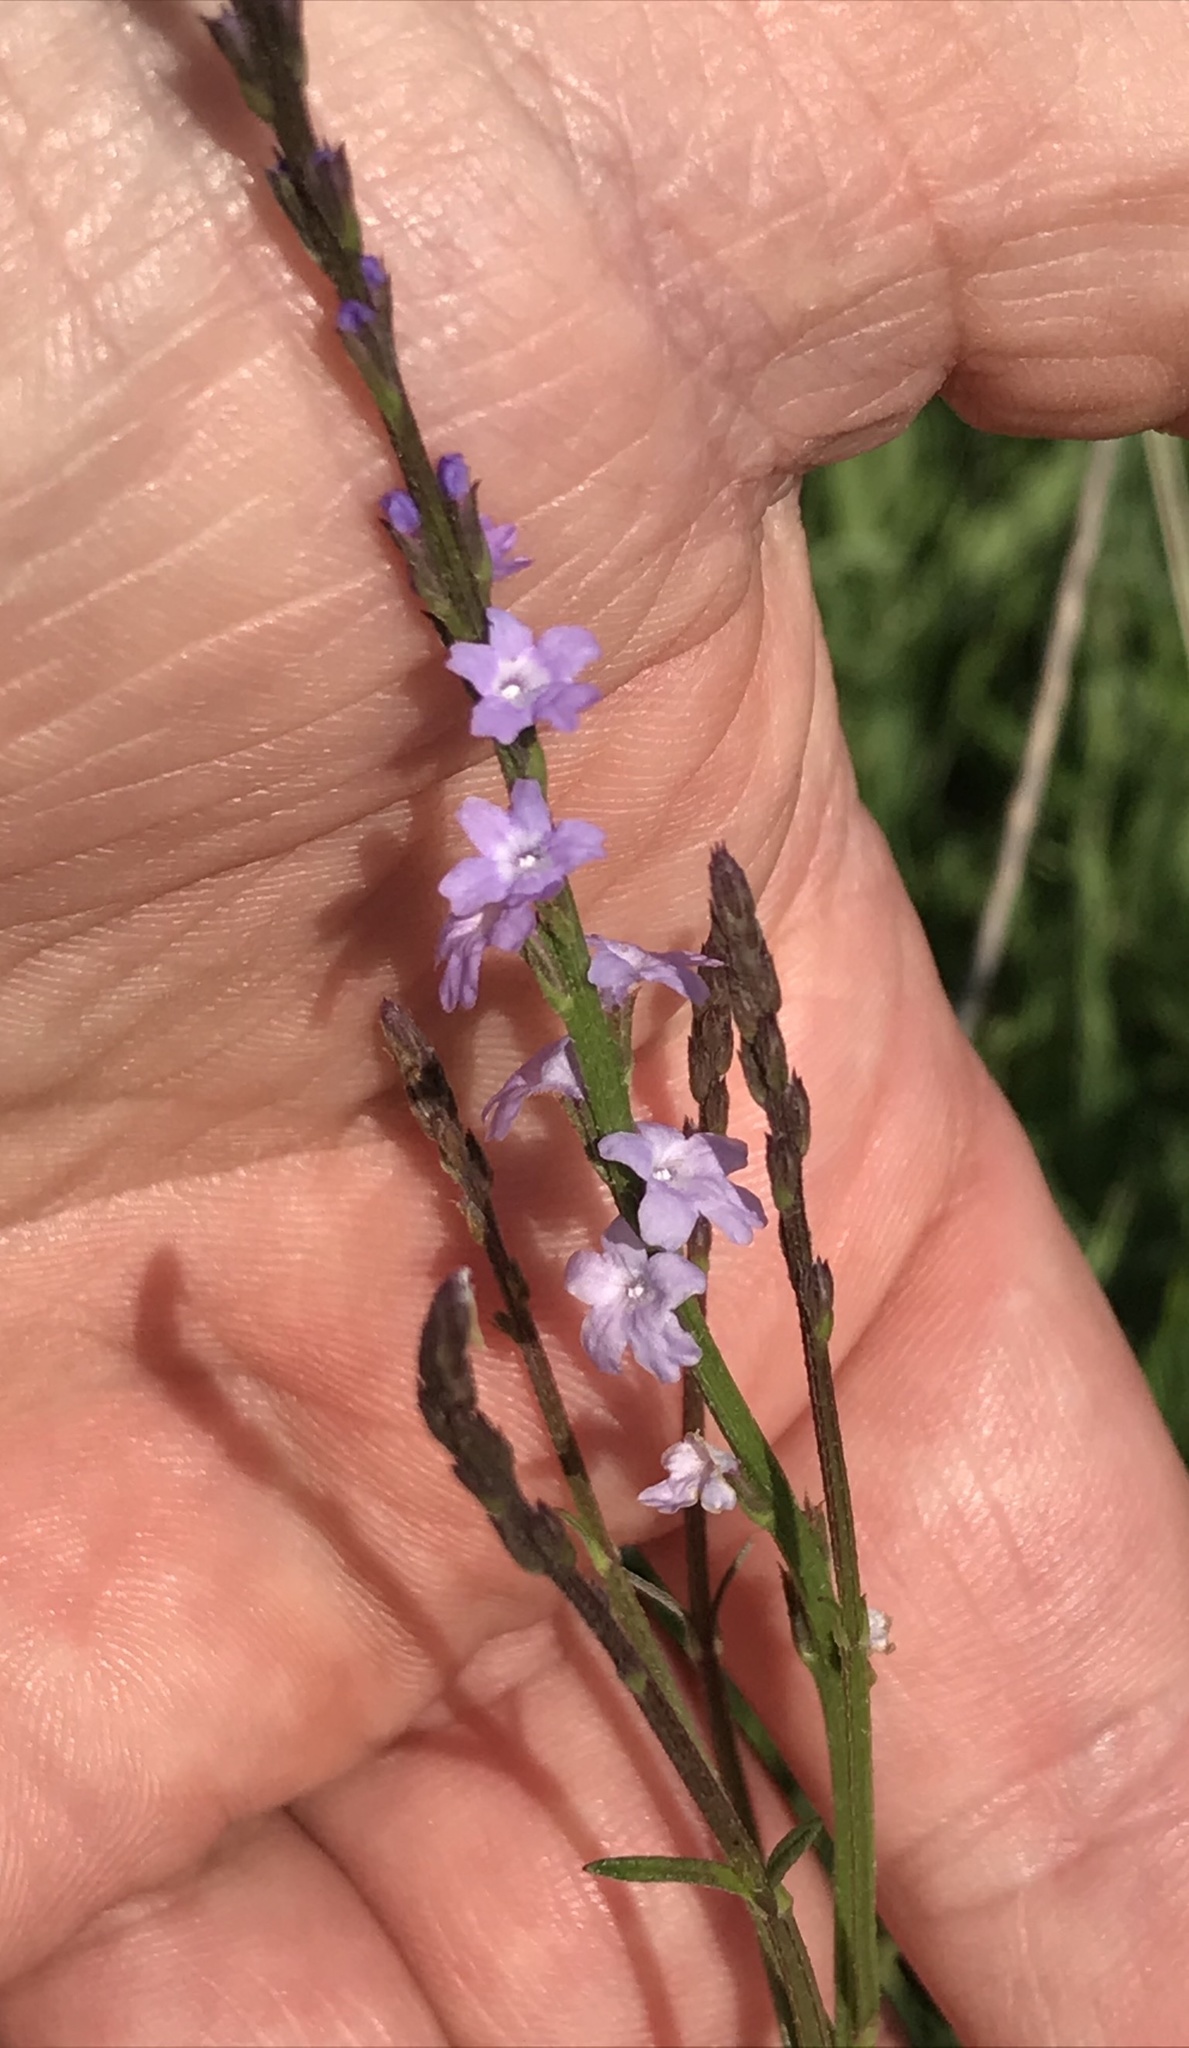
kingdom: Plantae
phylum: Tracheophyta
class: Magnoliopsida
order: Lamiales
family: Verbenaceae
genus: Verbena
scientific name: Verbena halei
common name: Texas vervain
